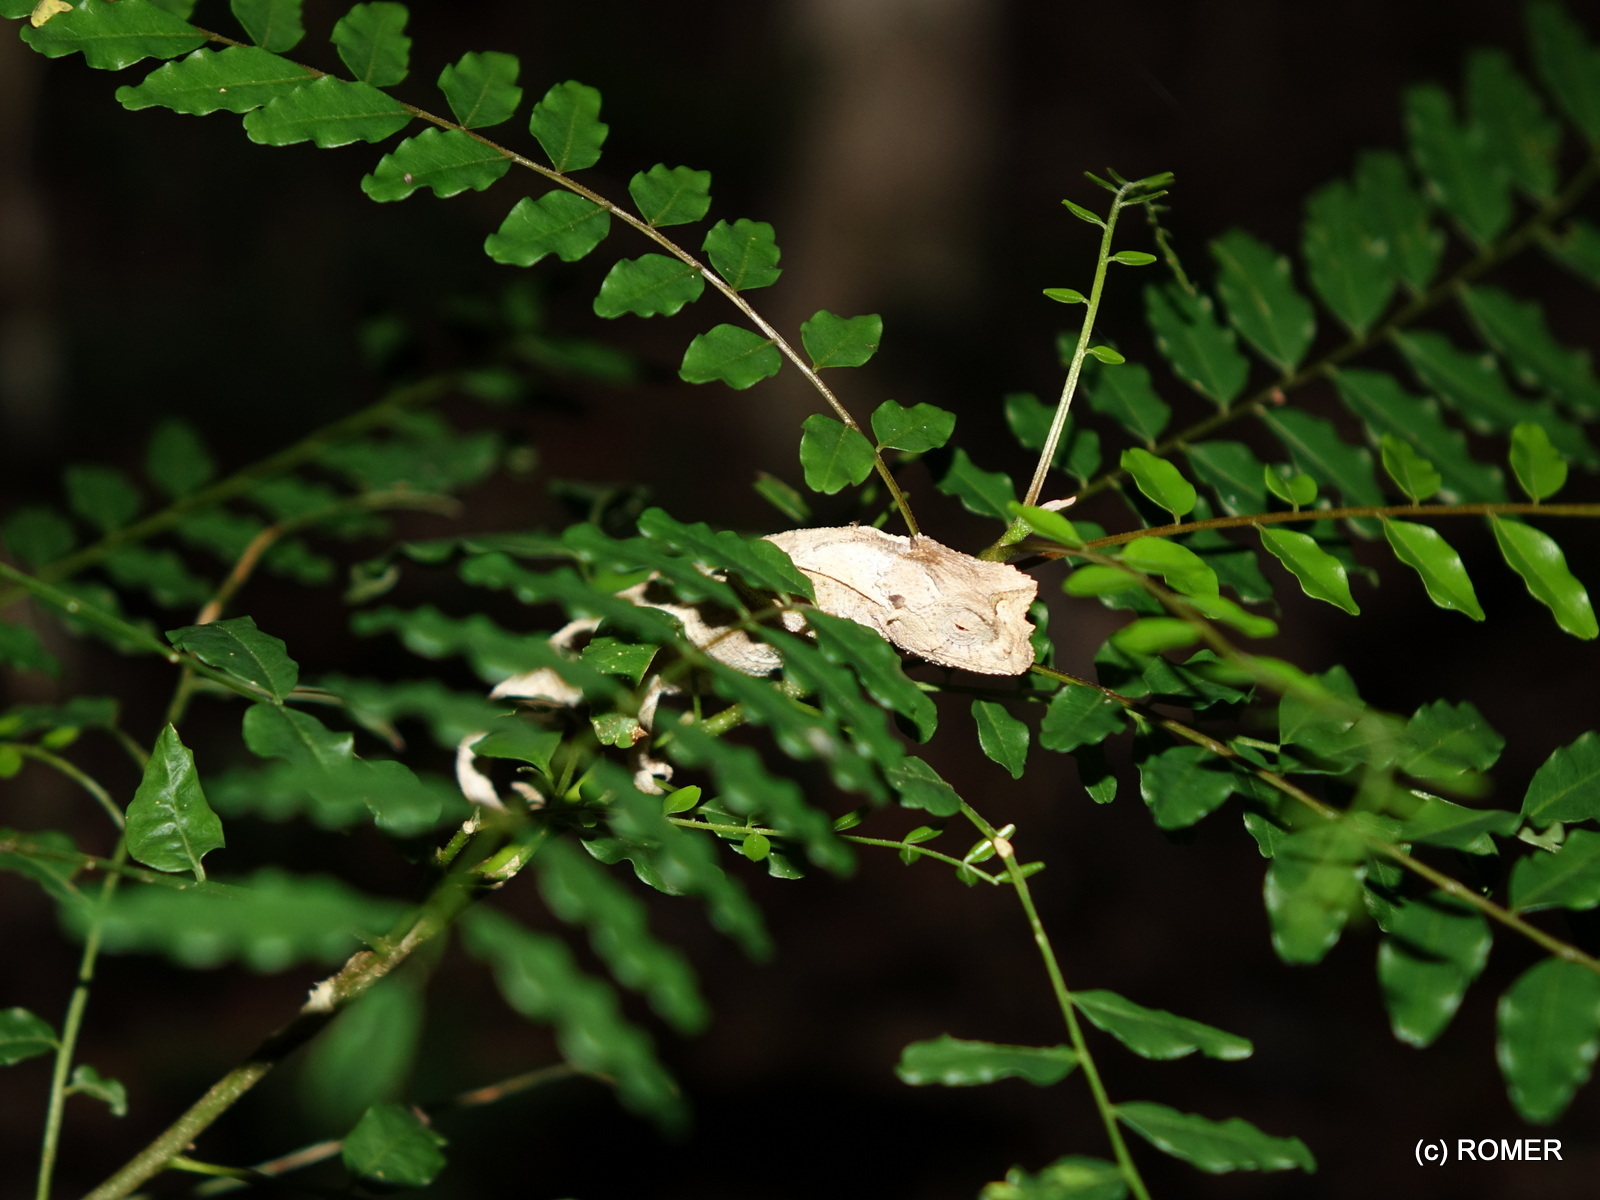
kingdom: Animalia
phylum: Chordata
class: Squamata
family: Chamaeleonidae
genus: Brookesia
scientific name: Brookesia brygooi
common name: Brygoo's leaf chameleon
